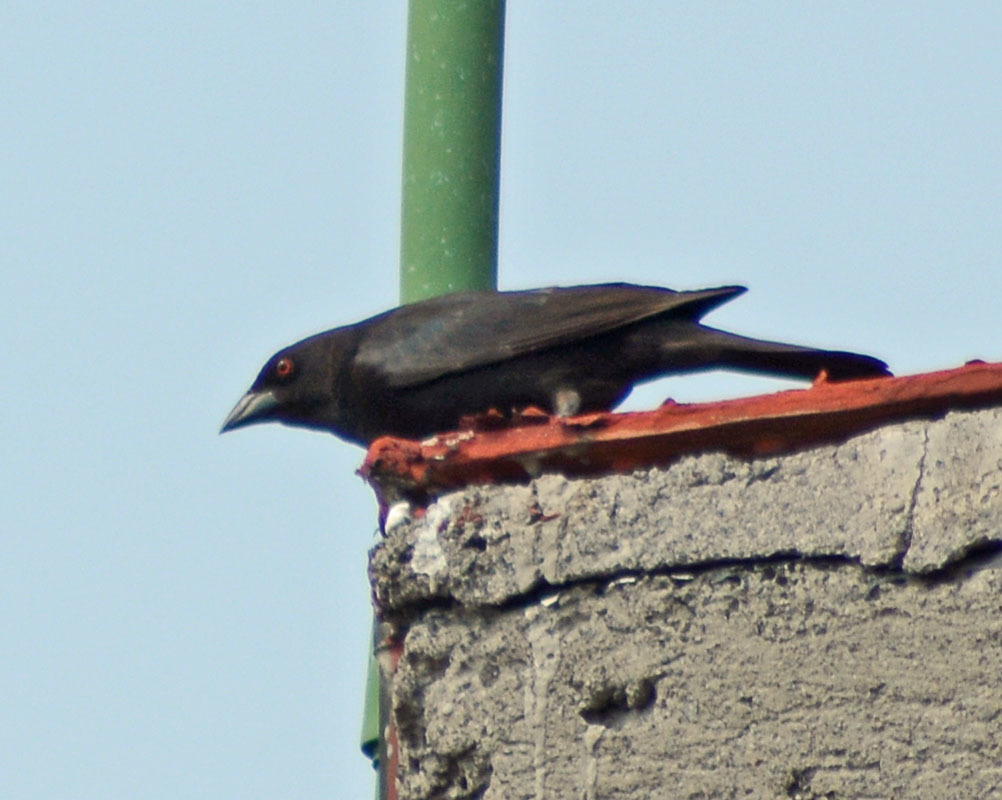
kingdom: Animalia
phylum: Chordata
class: Aves
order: Passeriformes
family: Icteridae
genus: Molothrus
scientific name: Molothrus aeneus
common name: Bronzed cowbird
